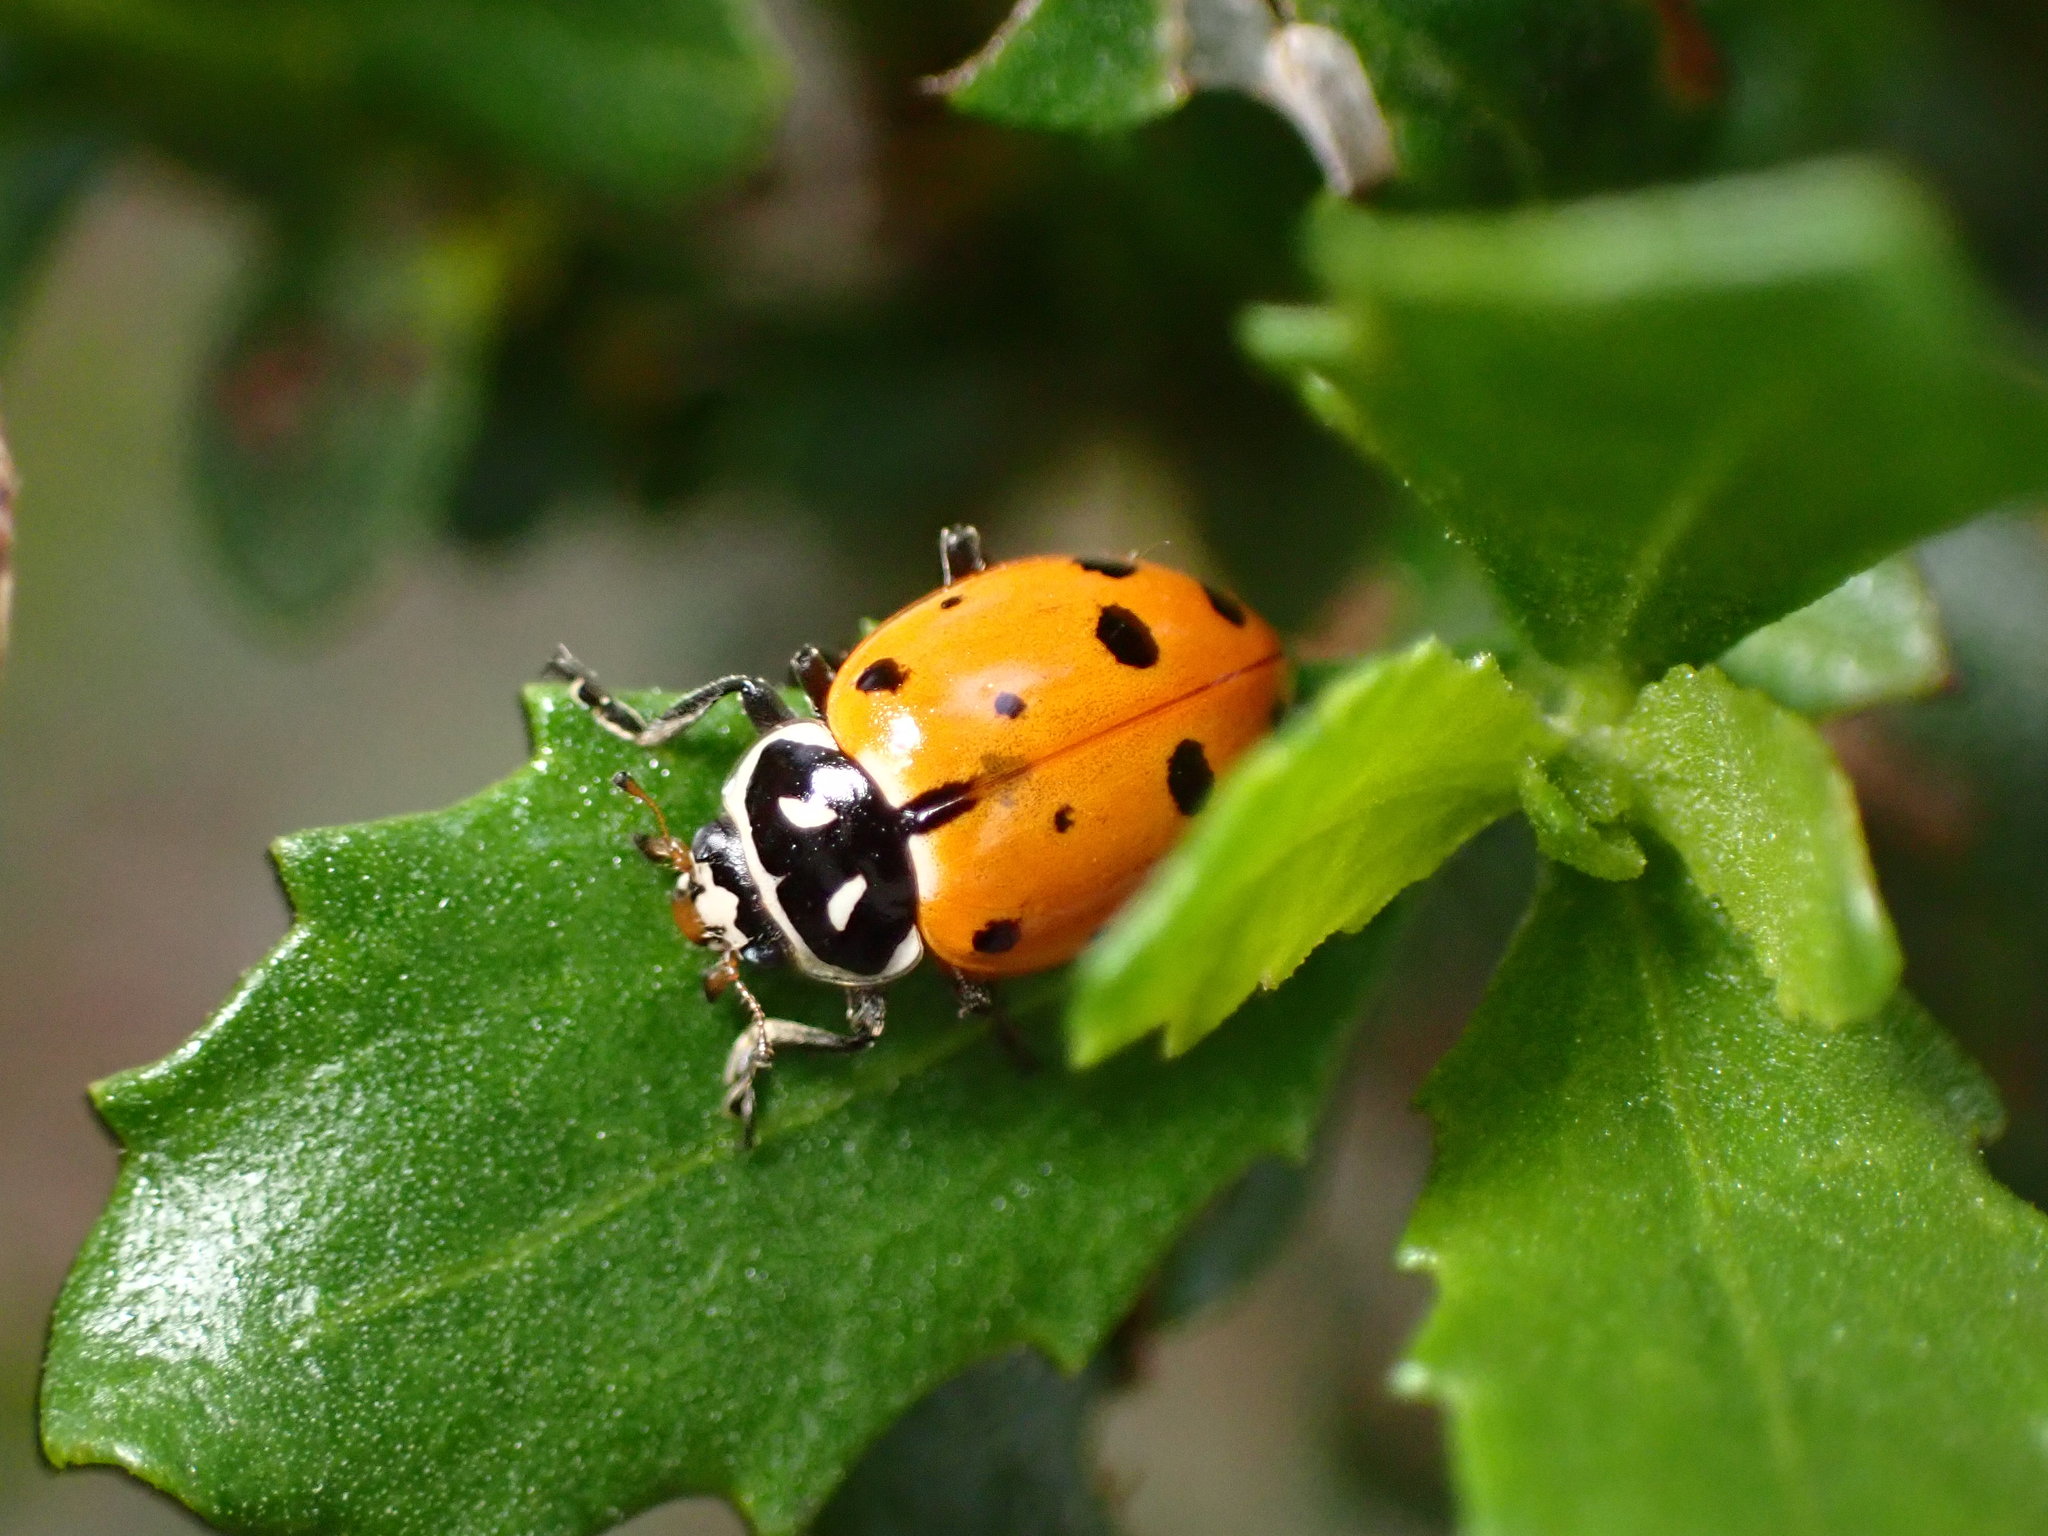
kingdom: Animalia
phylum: Arthropoda
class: Insecta
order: Coleoptera
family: Coccinellidae
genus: Hippodamia
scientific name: Hippodamia convergens
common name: Convergent lady beetle
